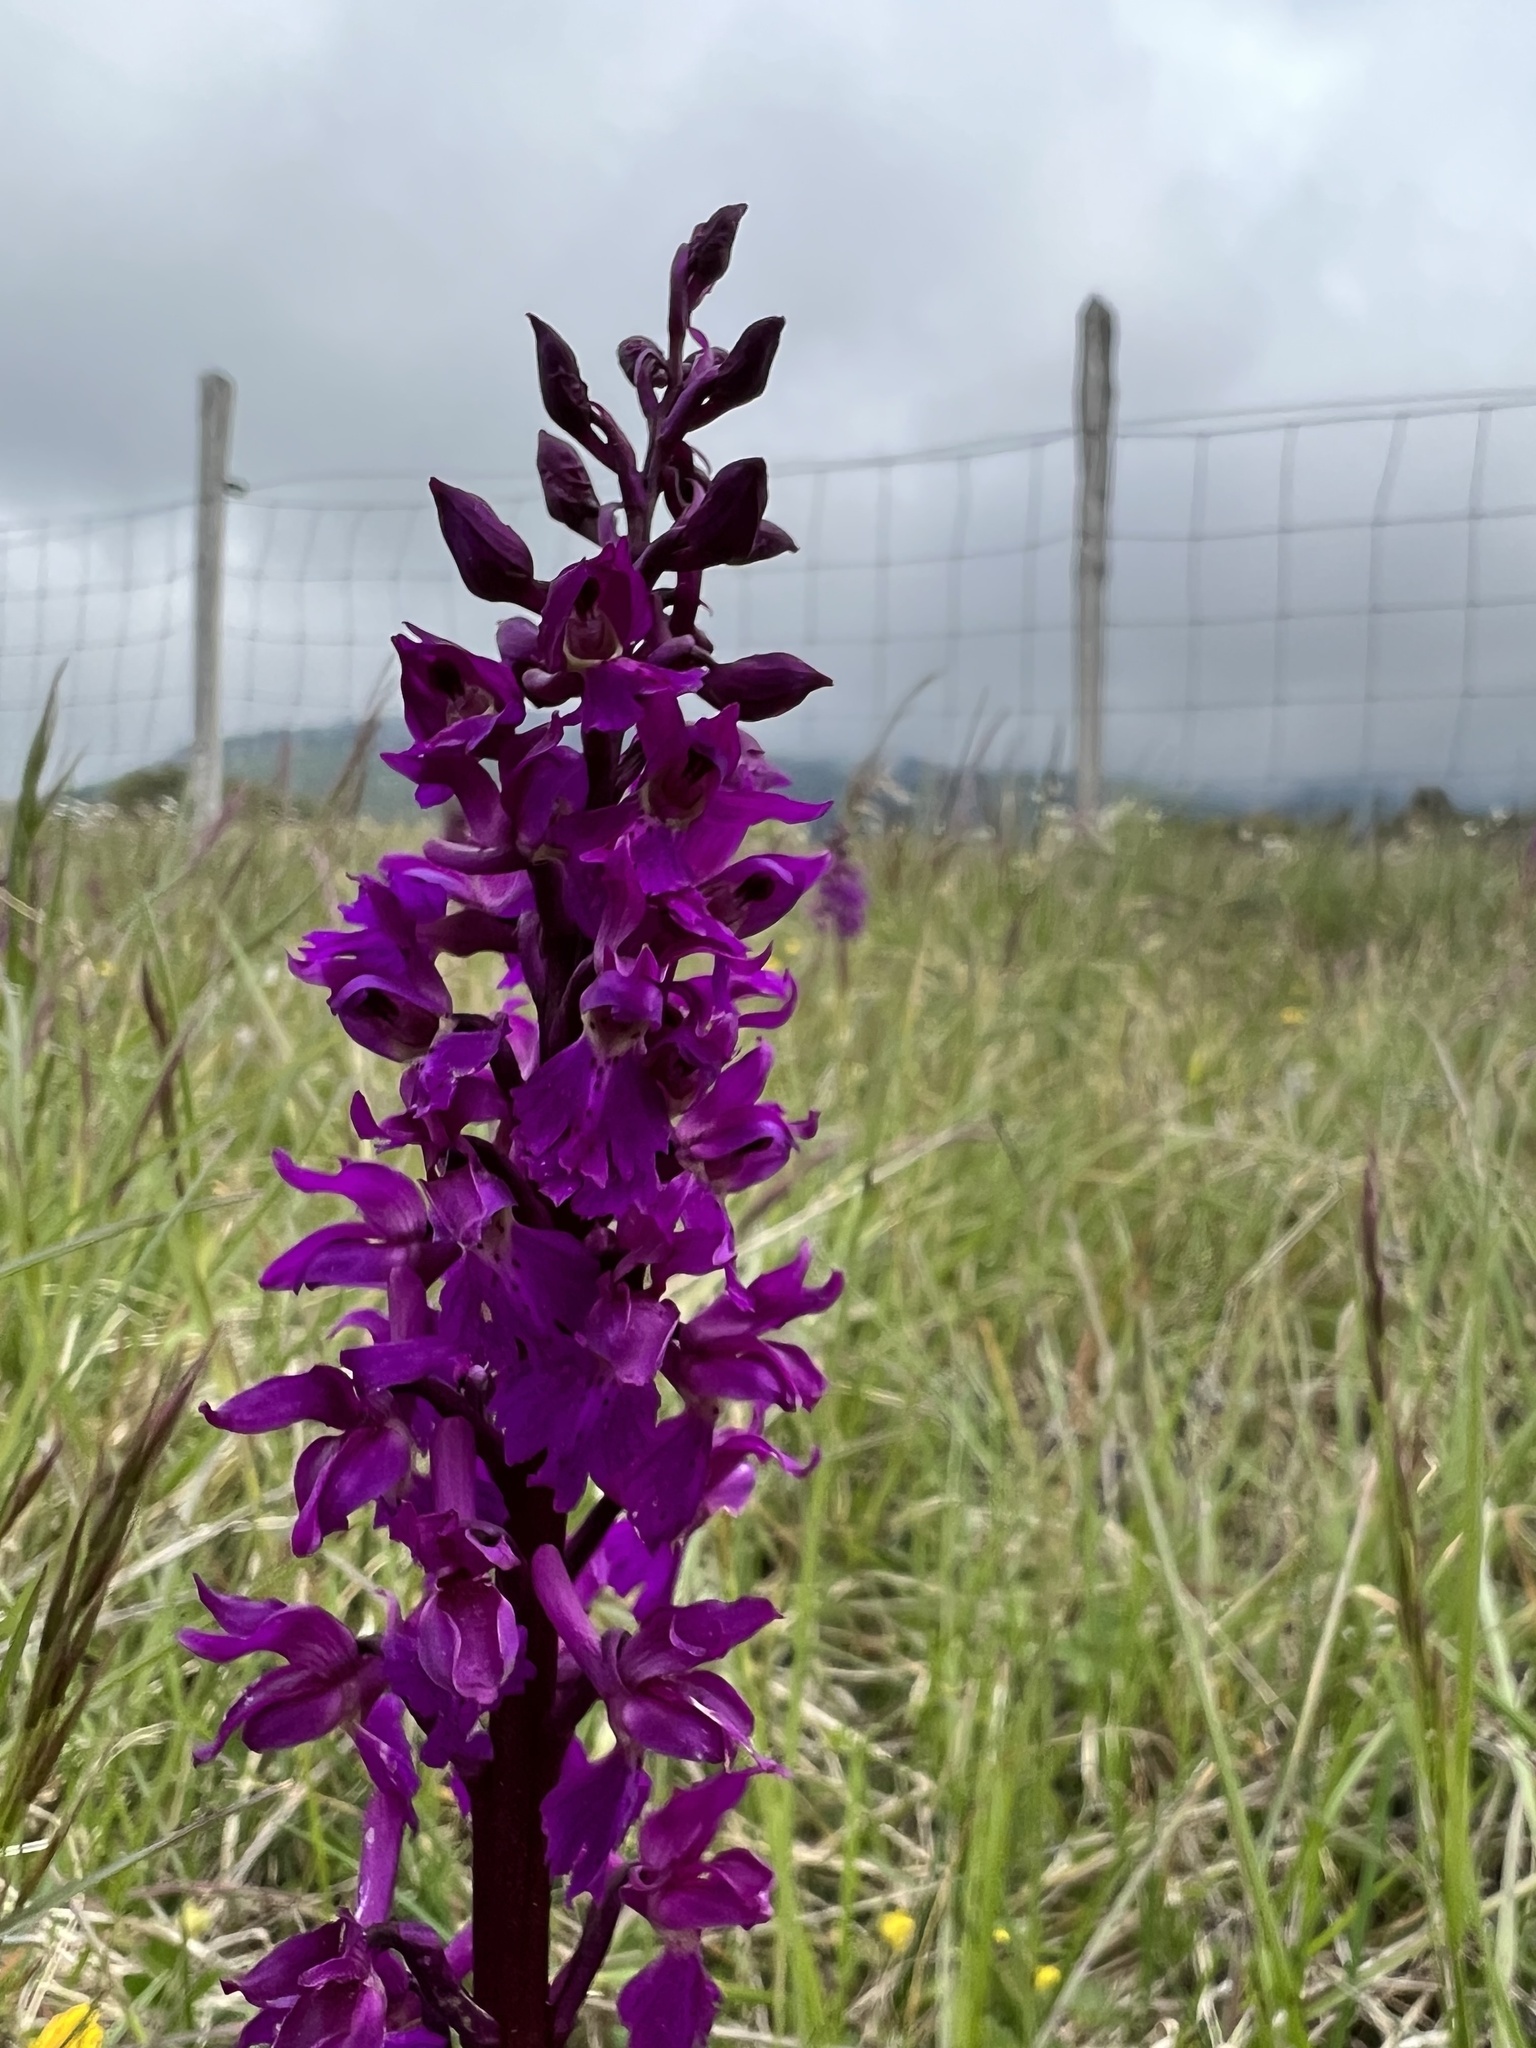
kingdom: Plantae
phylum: Tracheophyta
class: Liliopsida
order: Asparagales
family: Orchidaceae
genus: Orchis
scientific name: Orchis mascula
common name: Early-purple orchid
